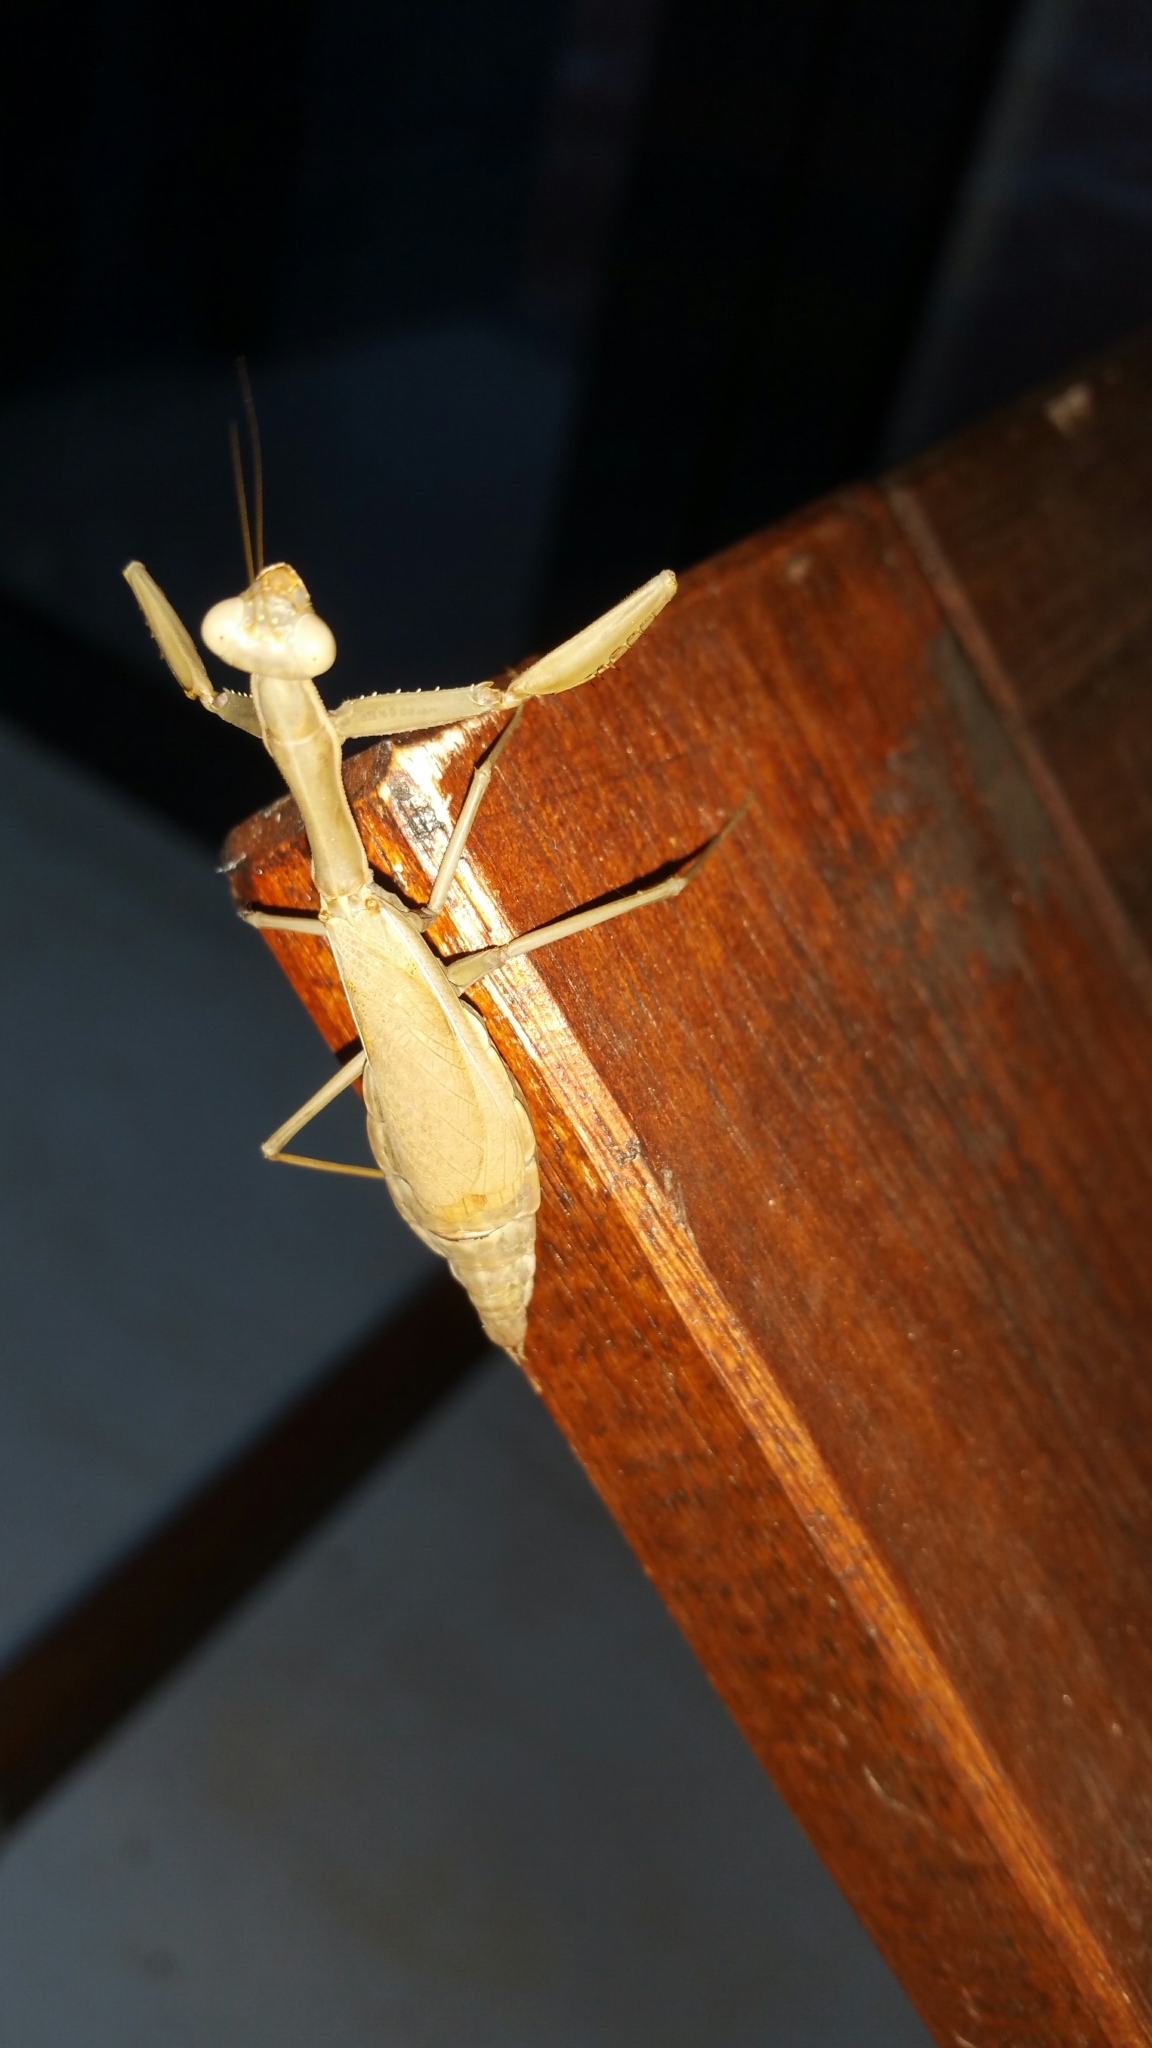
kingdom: Animalia
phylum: Arthropoda
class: Insecta
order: Mantodea
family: Eremiaphilidae
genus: Iris
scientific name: Iris oratoria
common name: Mediterranean mantis
